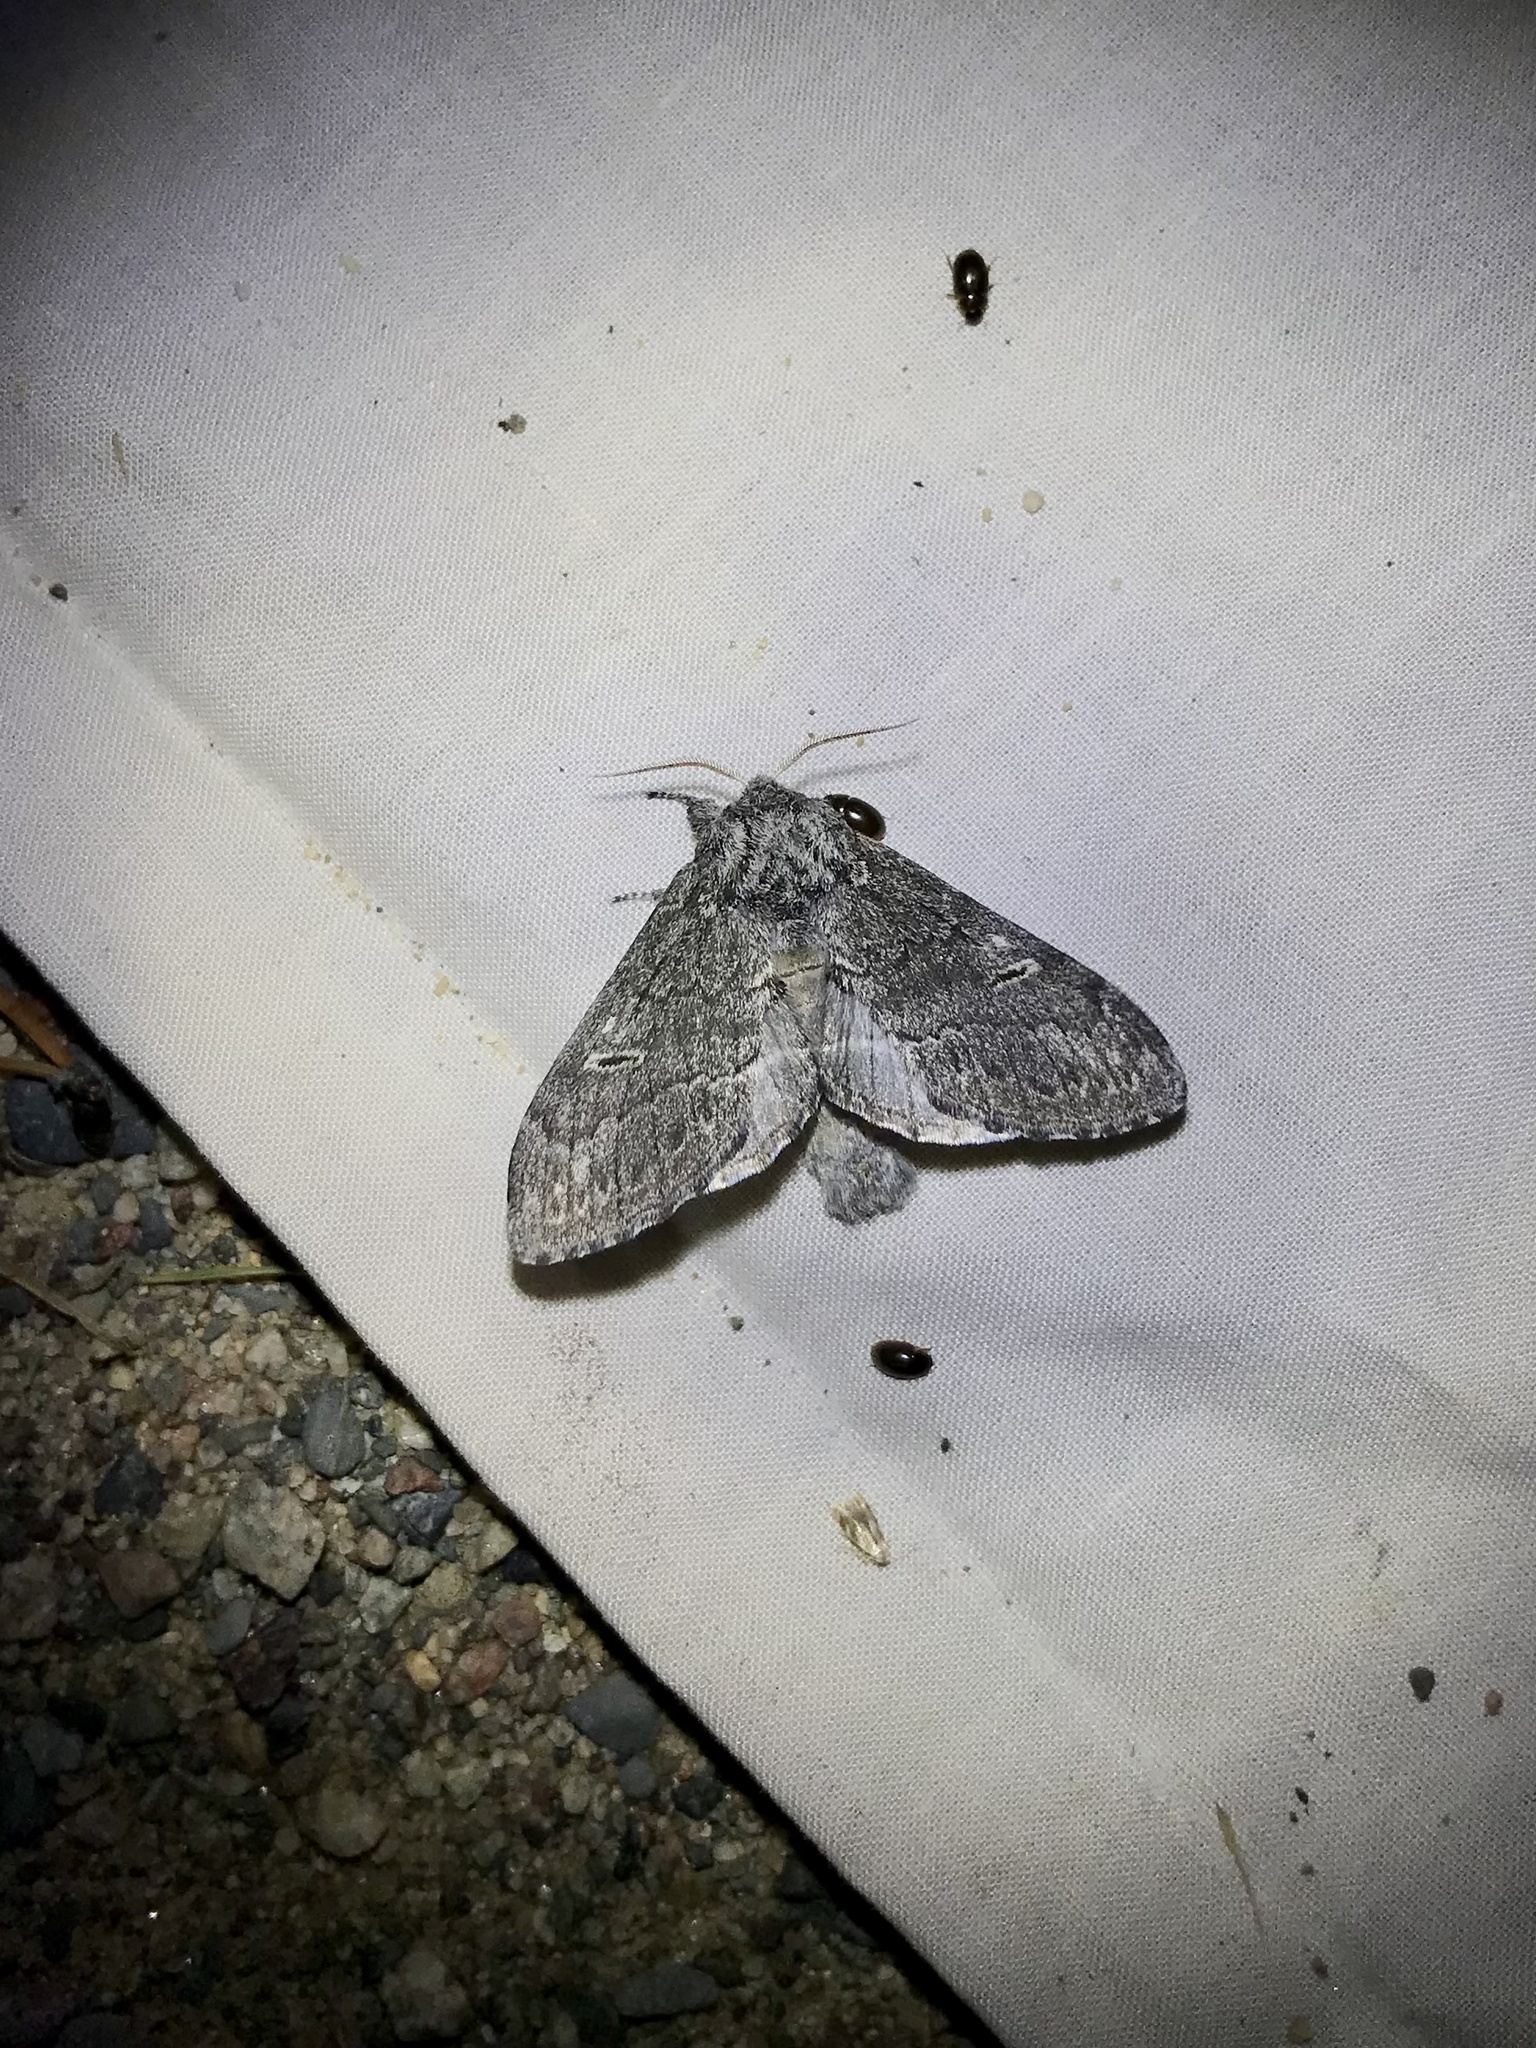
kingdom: Animalia
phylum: Arthropoda
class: Insecta
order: Lepidoptera
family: Notodontidae
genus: Notodonta
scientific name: Notodonta torva
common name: Large dark prominent
